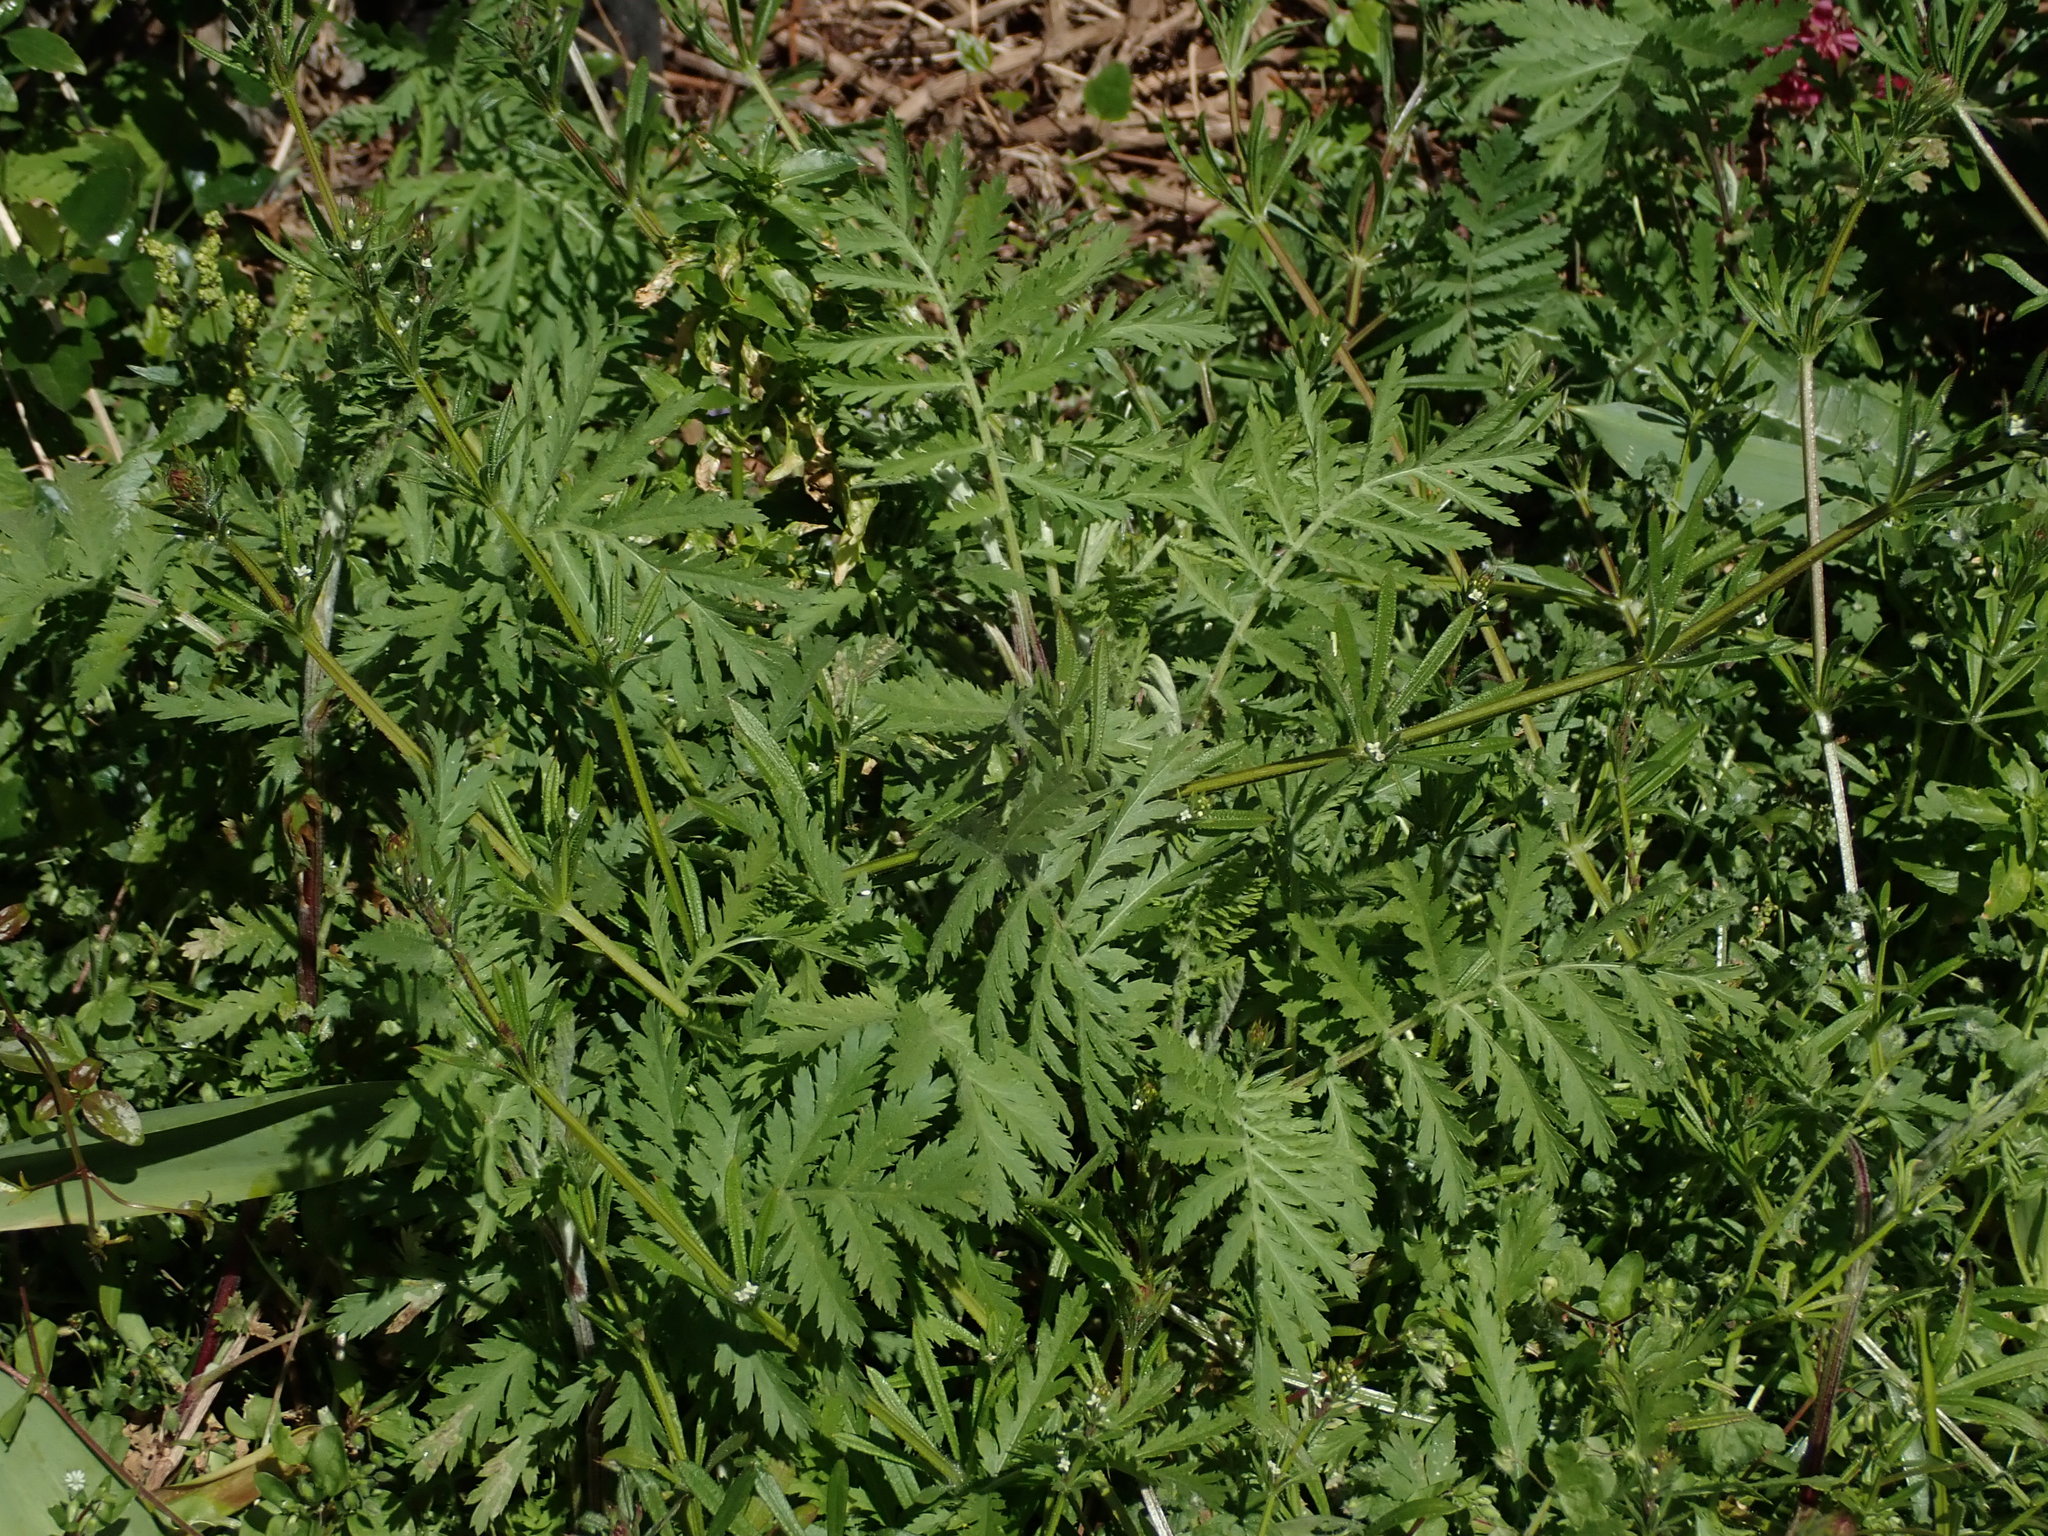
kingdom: Plantae
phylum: Tracheophyta
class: Magnoliopsida
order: Asterales
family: Asteraceae
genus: Tanacetum
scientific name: Tanacetum vulgare
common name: Common tansy
